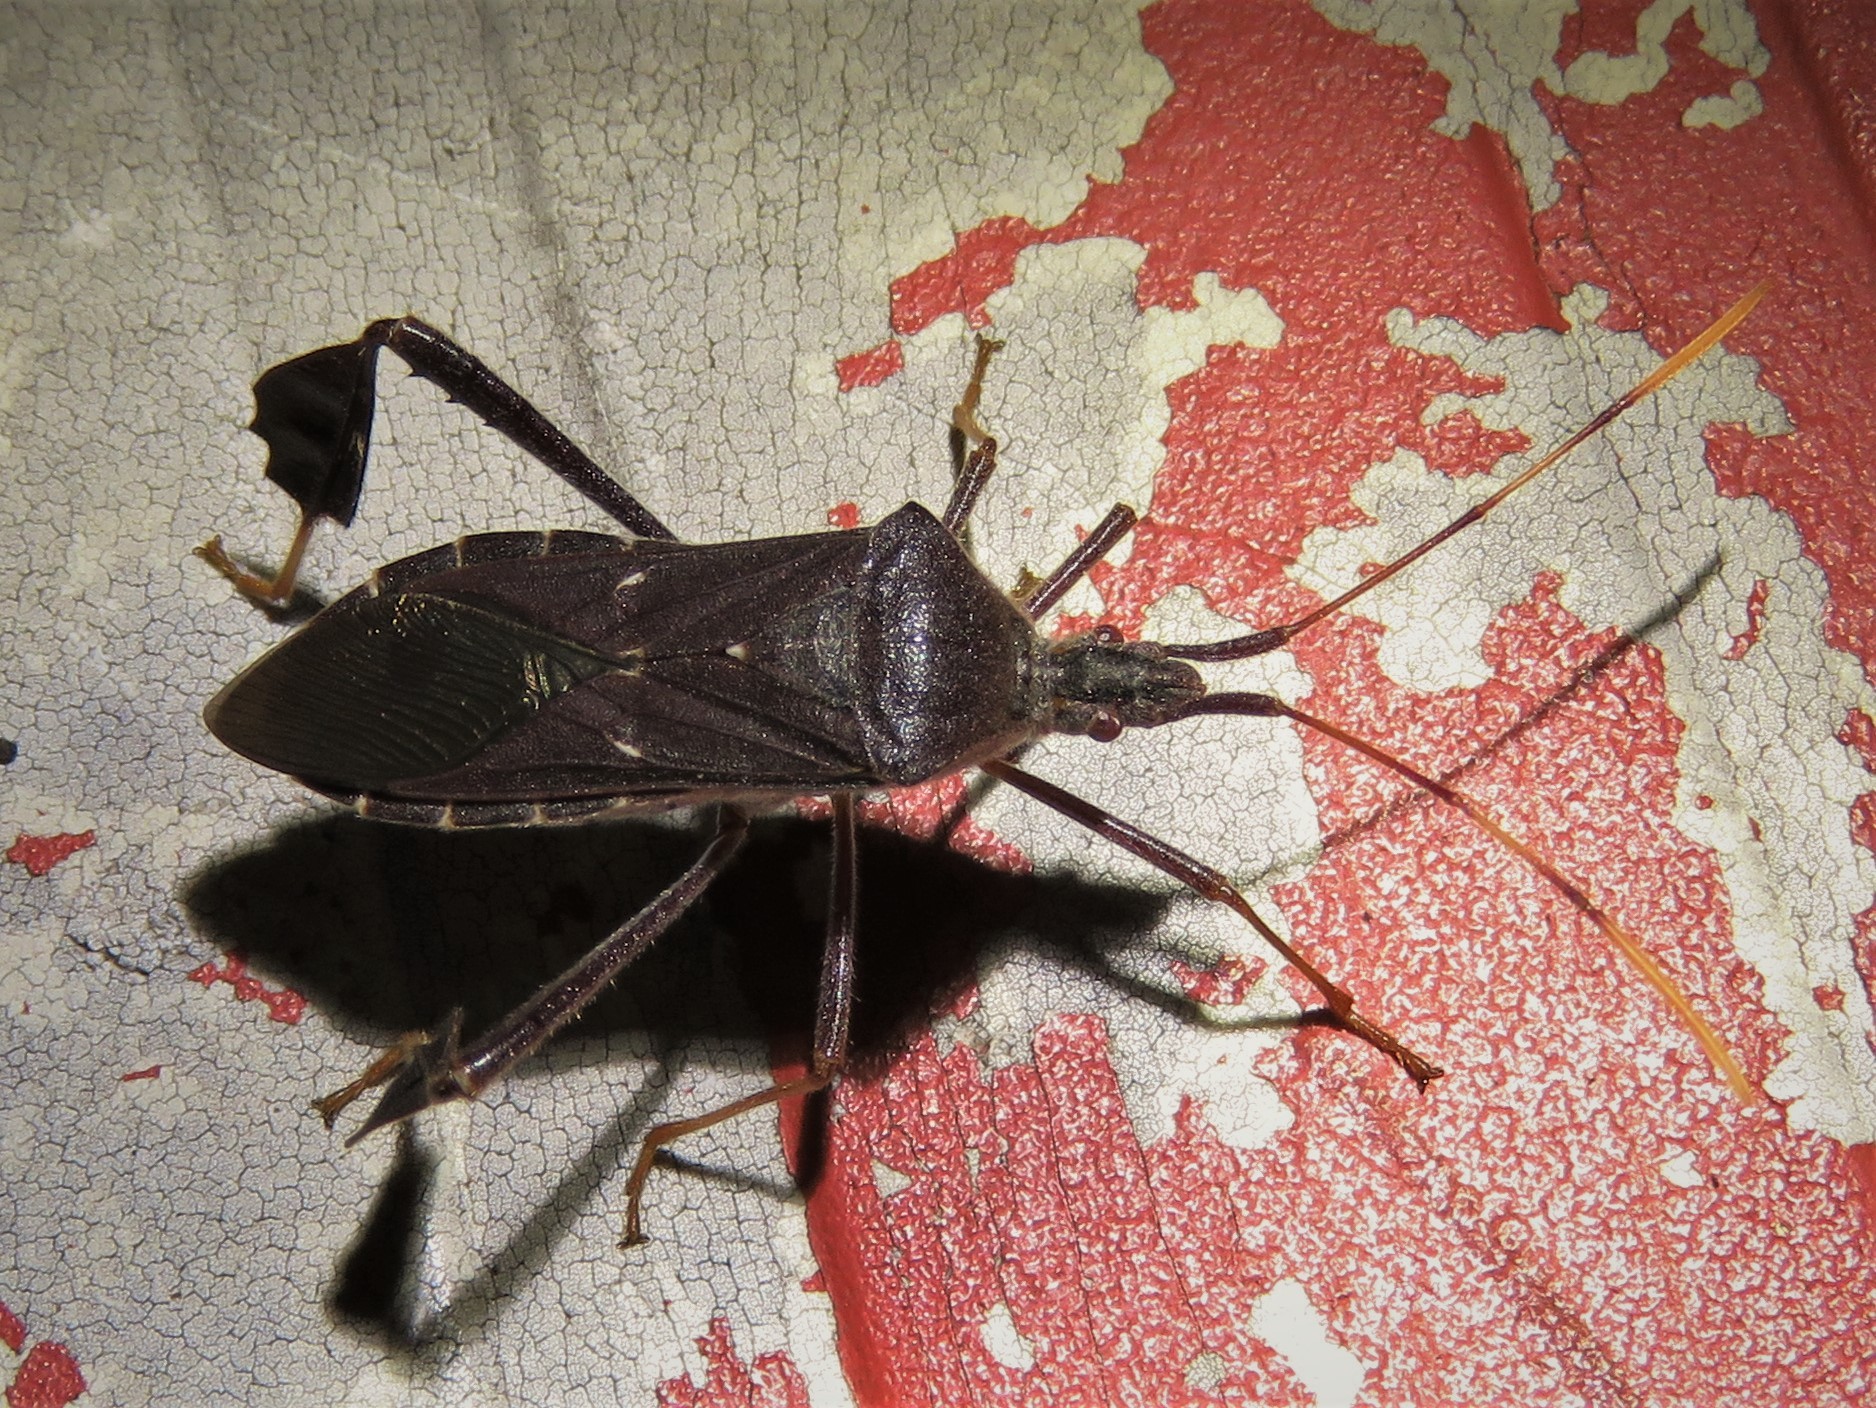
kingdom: Animalia
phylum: Arthropoda
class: Insecta
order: Hemiptera
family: Coreidae
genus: Leptoglossus
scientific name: Leptoglossus oppositus
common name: Northern leaf-footed bug
